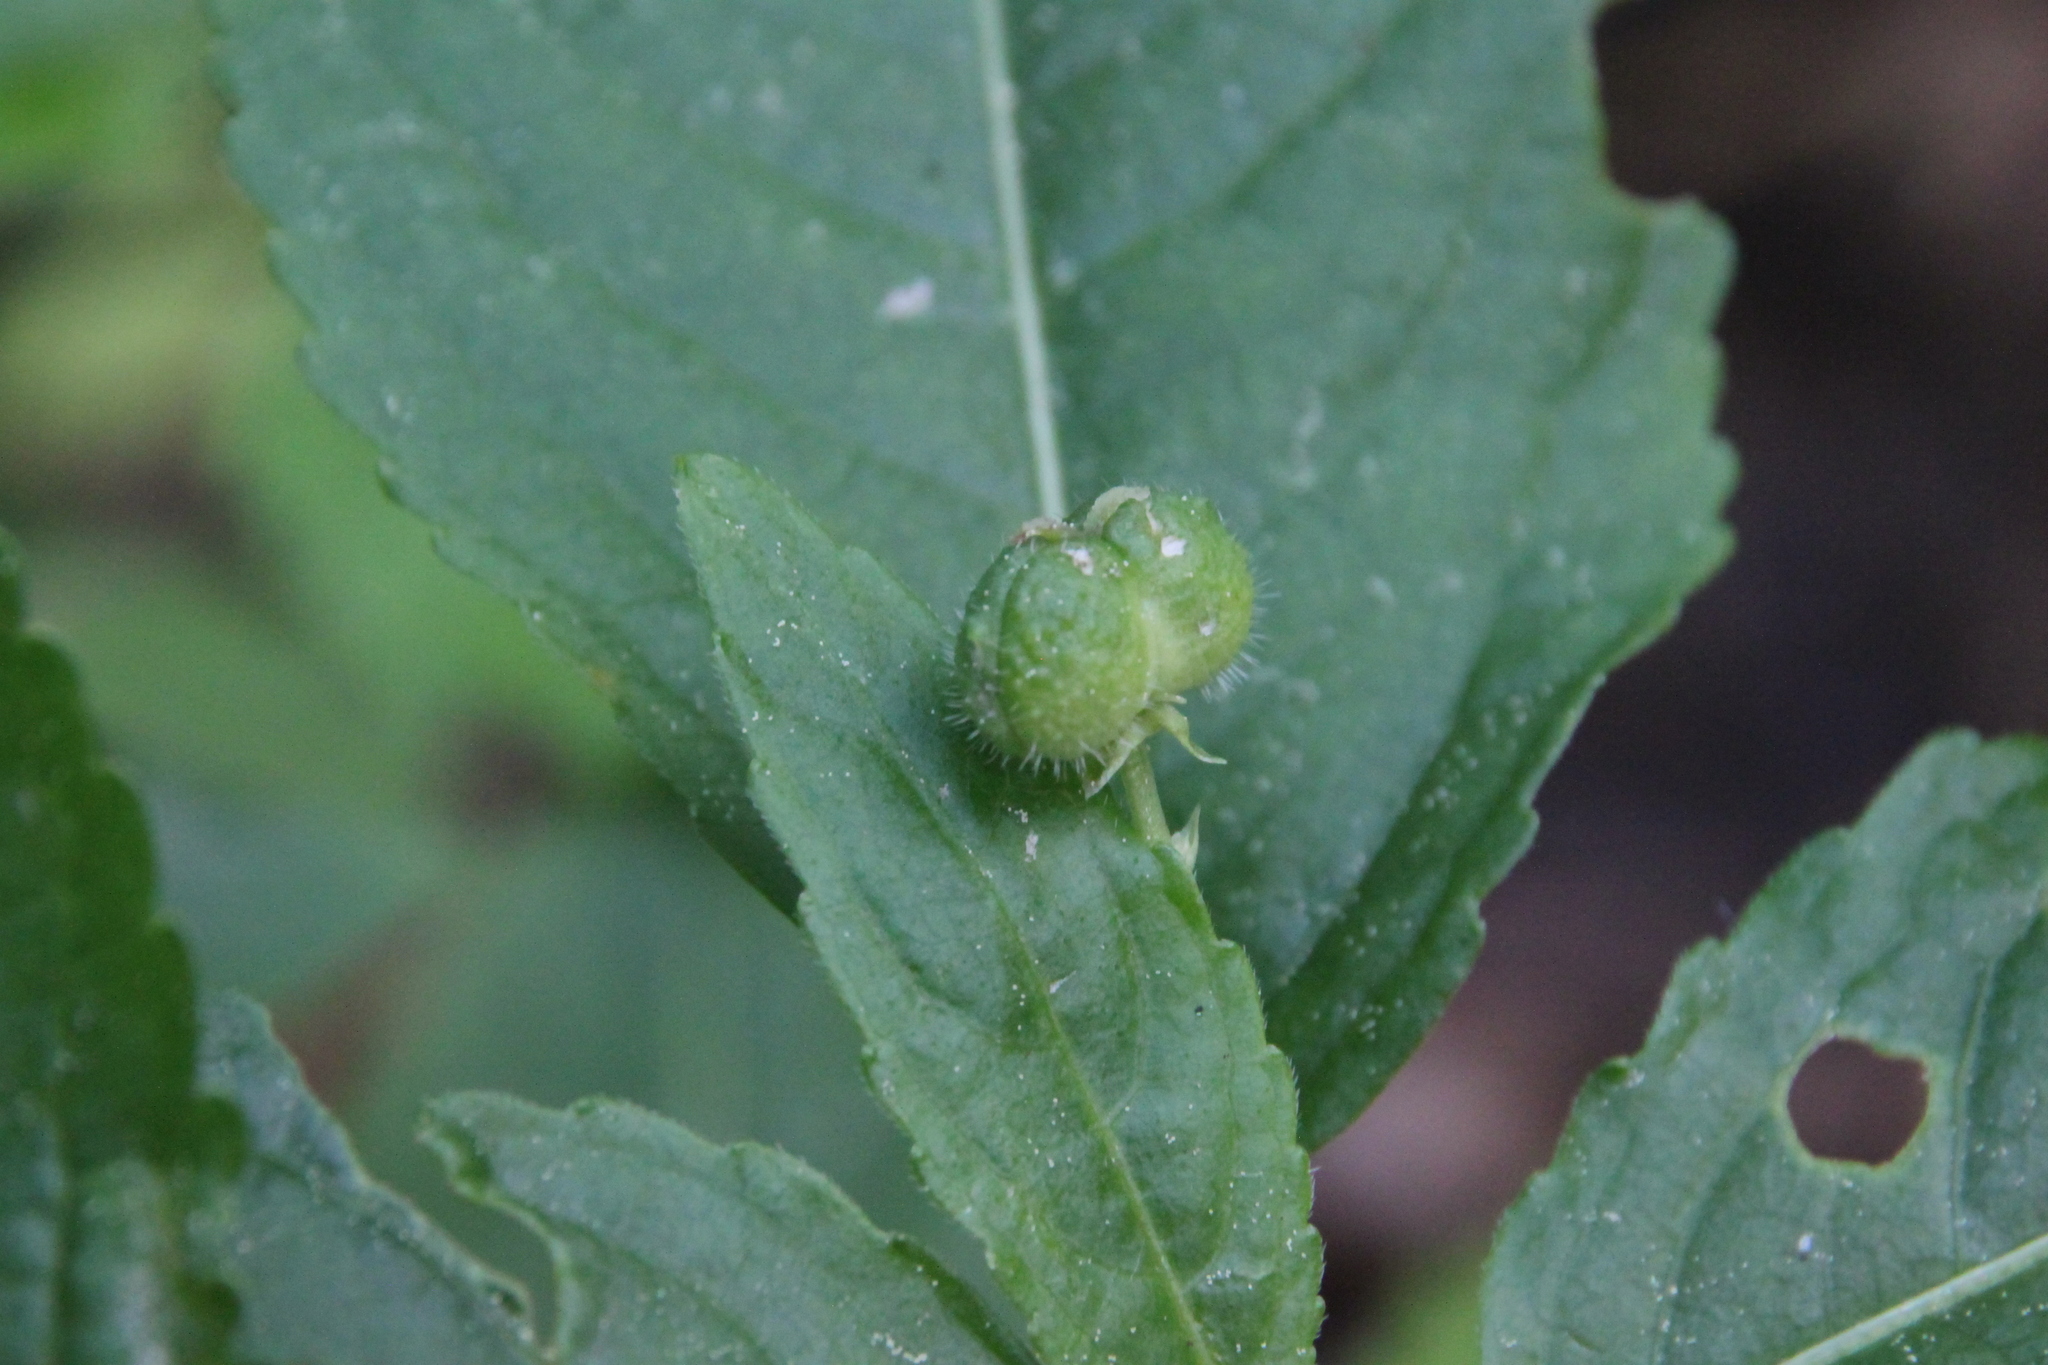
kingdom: Plantae
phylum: Tracheophyta
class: Magnoliopsida
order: Malpighiales
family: Euphorbiaceae
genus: Mercurialis
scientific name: Mercurialis perennis
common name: Dog mercury
